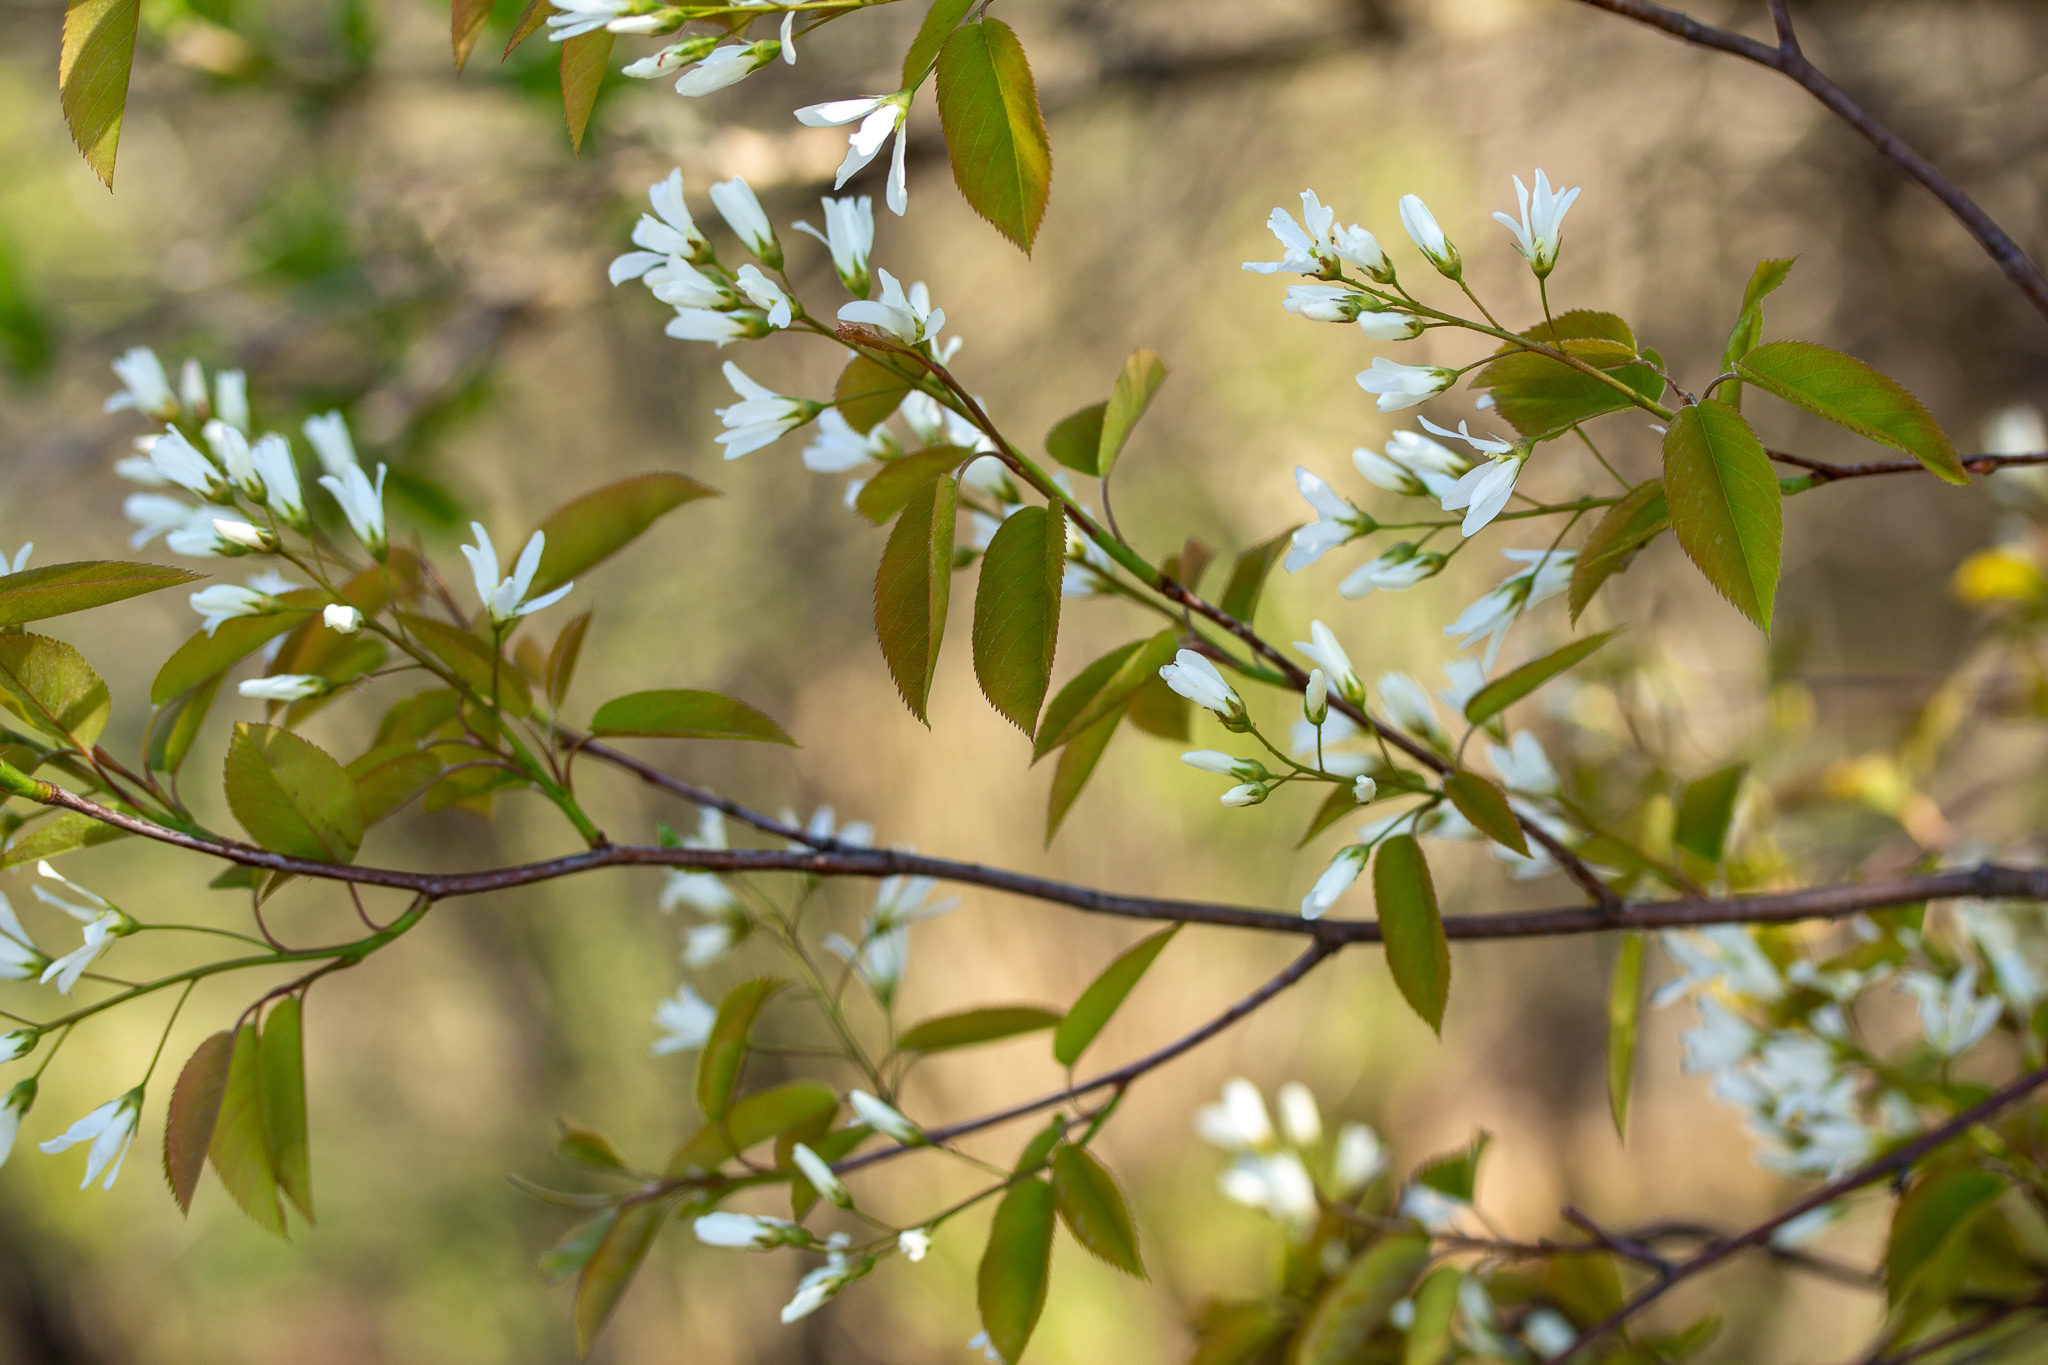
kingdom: Plantae
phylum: Tracheophyta
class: Magnoliopsida
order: Rosales
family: Rosaceae
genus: Amelanchier
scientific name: Amelanchier arborea
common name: Downy serviceberry
